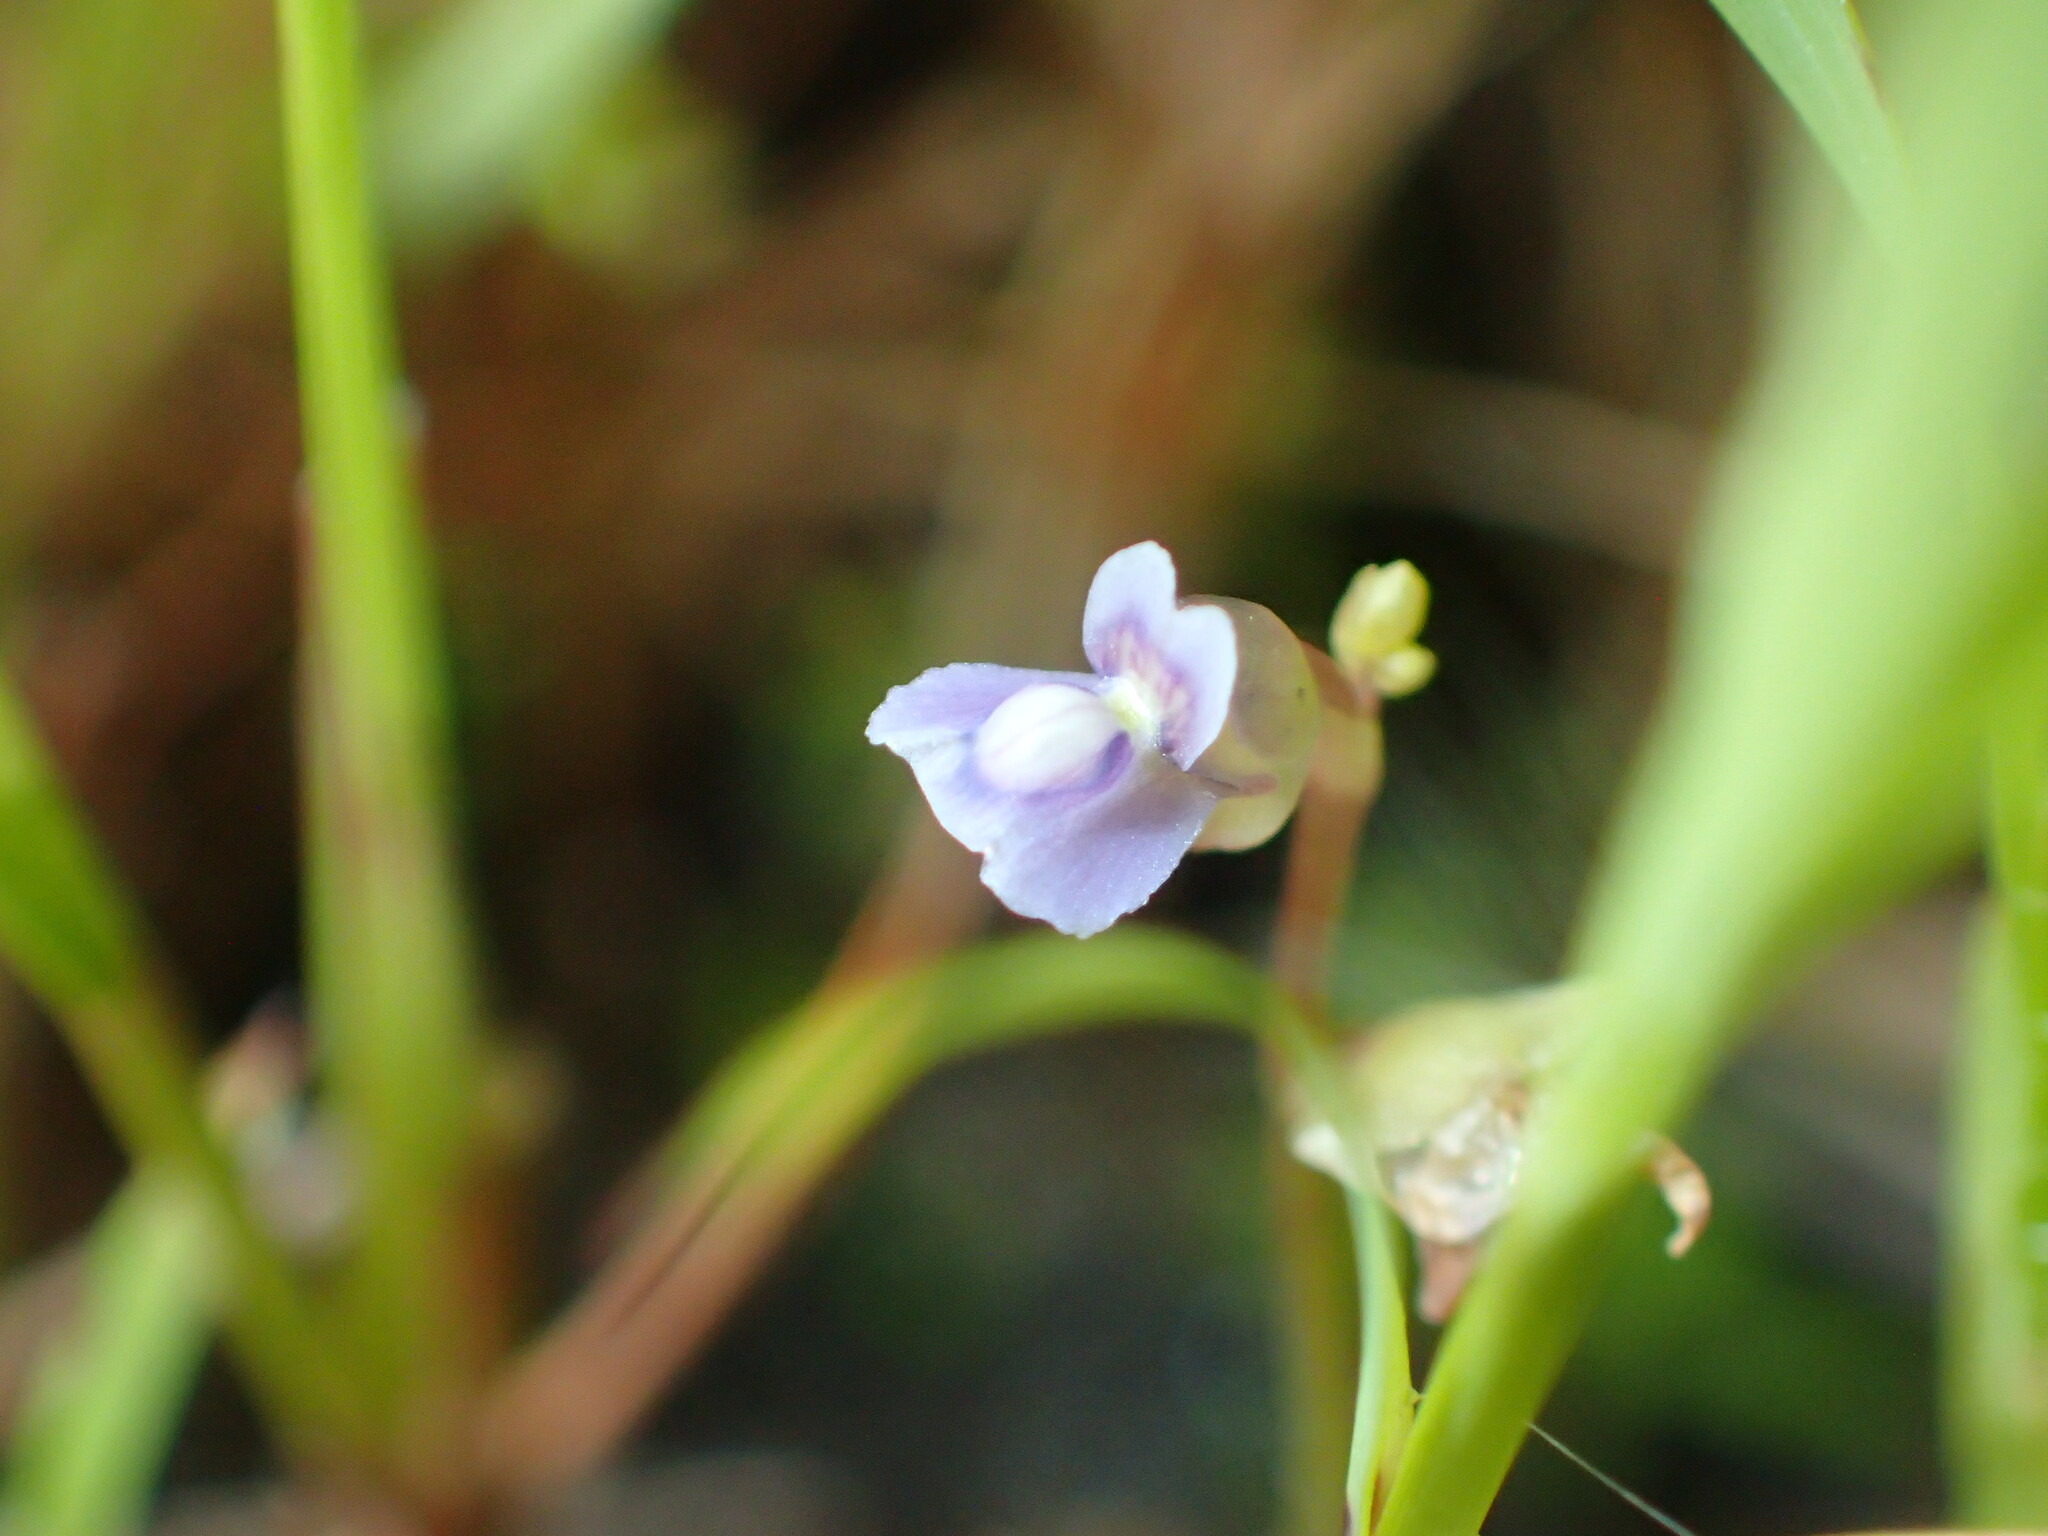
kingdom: Plantae
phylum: Tracheophyta
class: Magnoliopsida
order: Lamiales
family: Lentibulariaceae
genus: Utricularia
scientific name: Utricularia uliginosa
